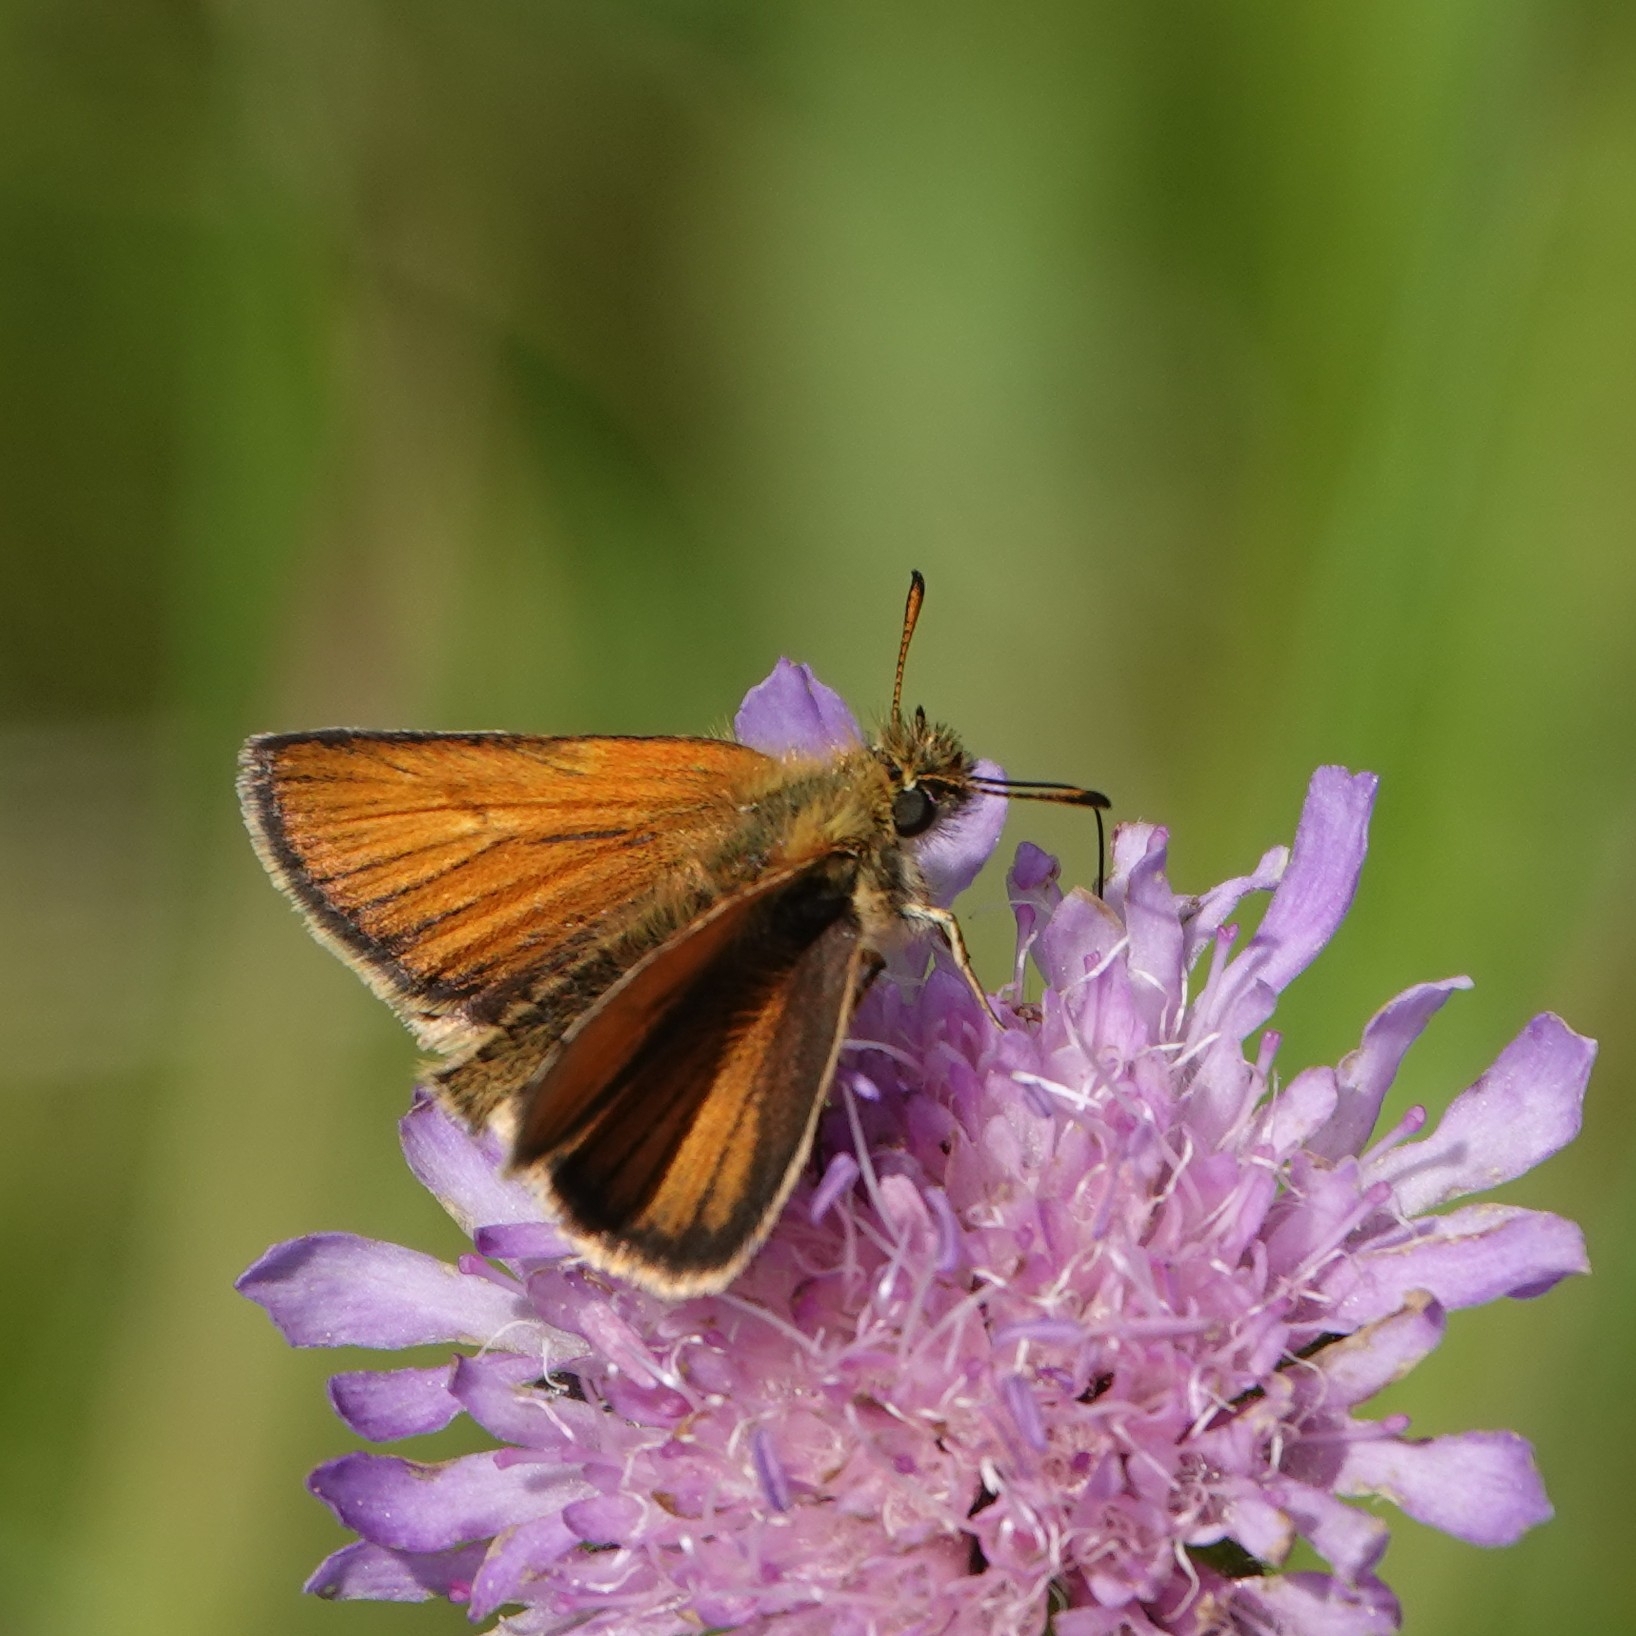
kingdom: Animalia
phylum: Arthropoda
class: Insecta
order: Lepidoptera
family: Hesperiidae
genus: Thymelicus
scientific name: Thymelicus lineola
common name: Essex skipper
